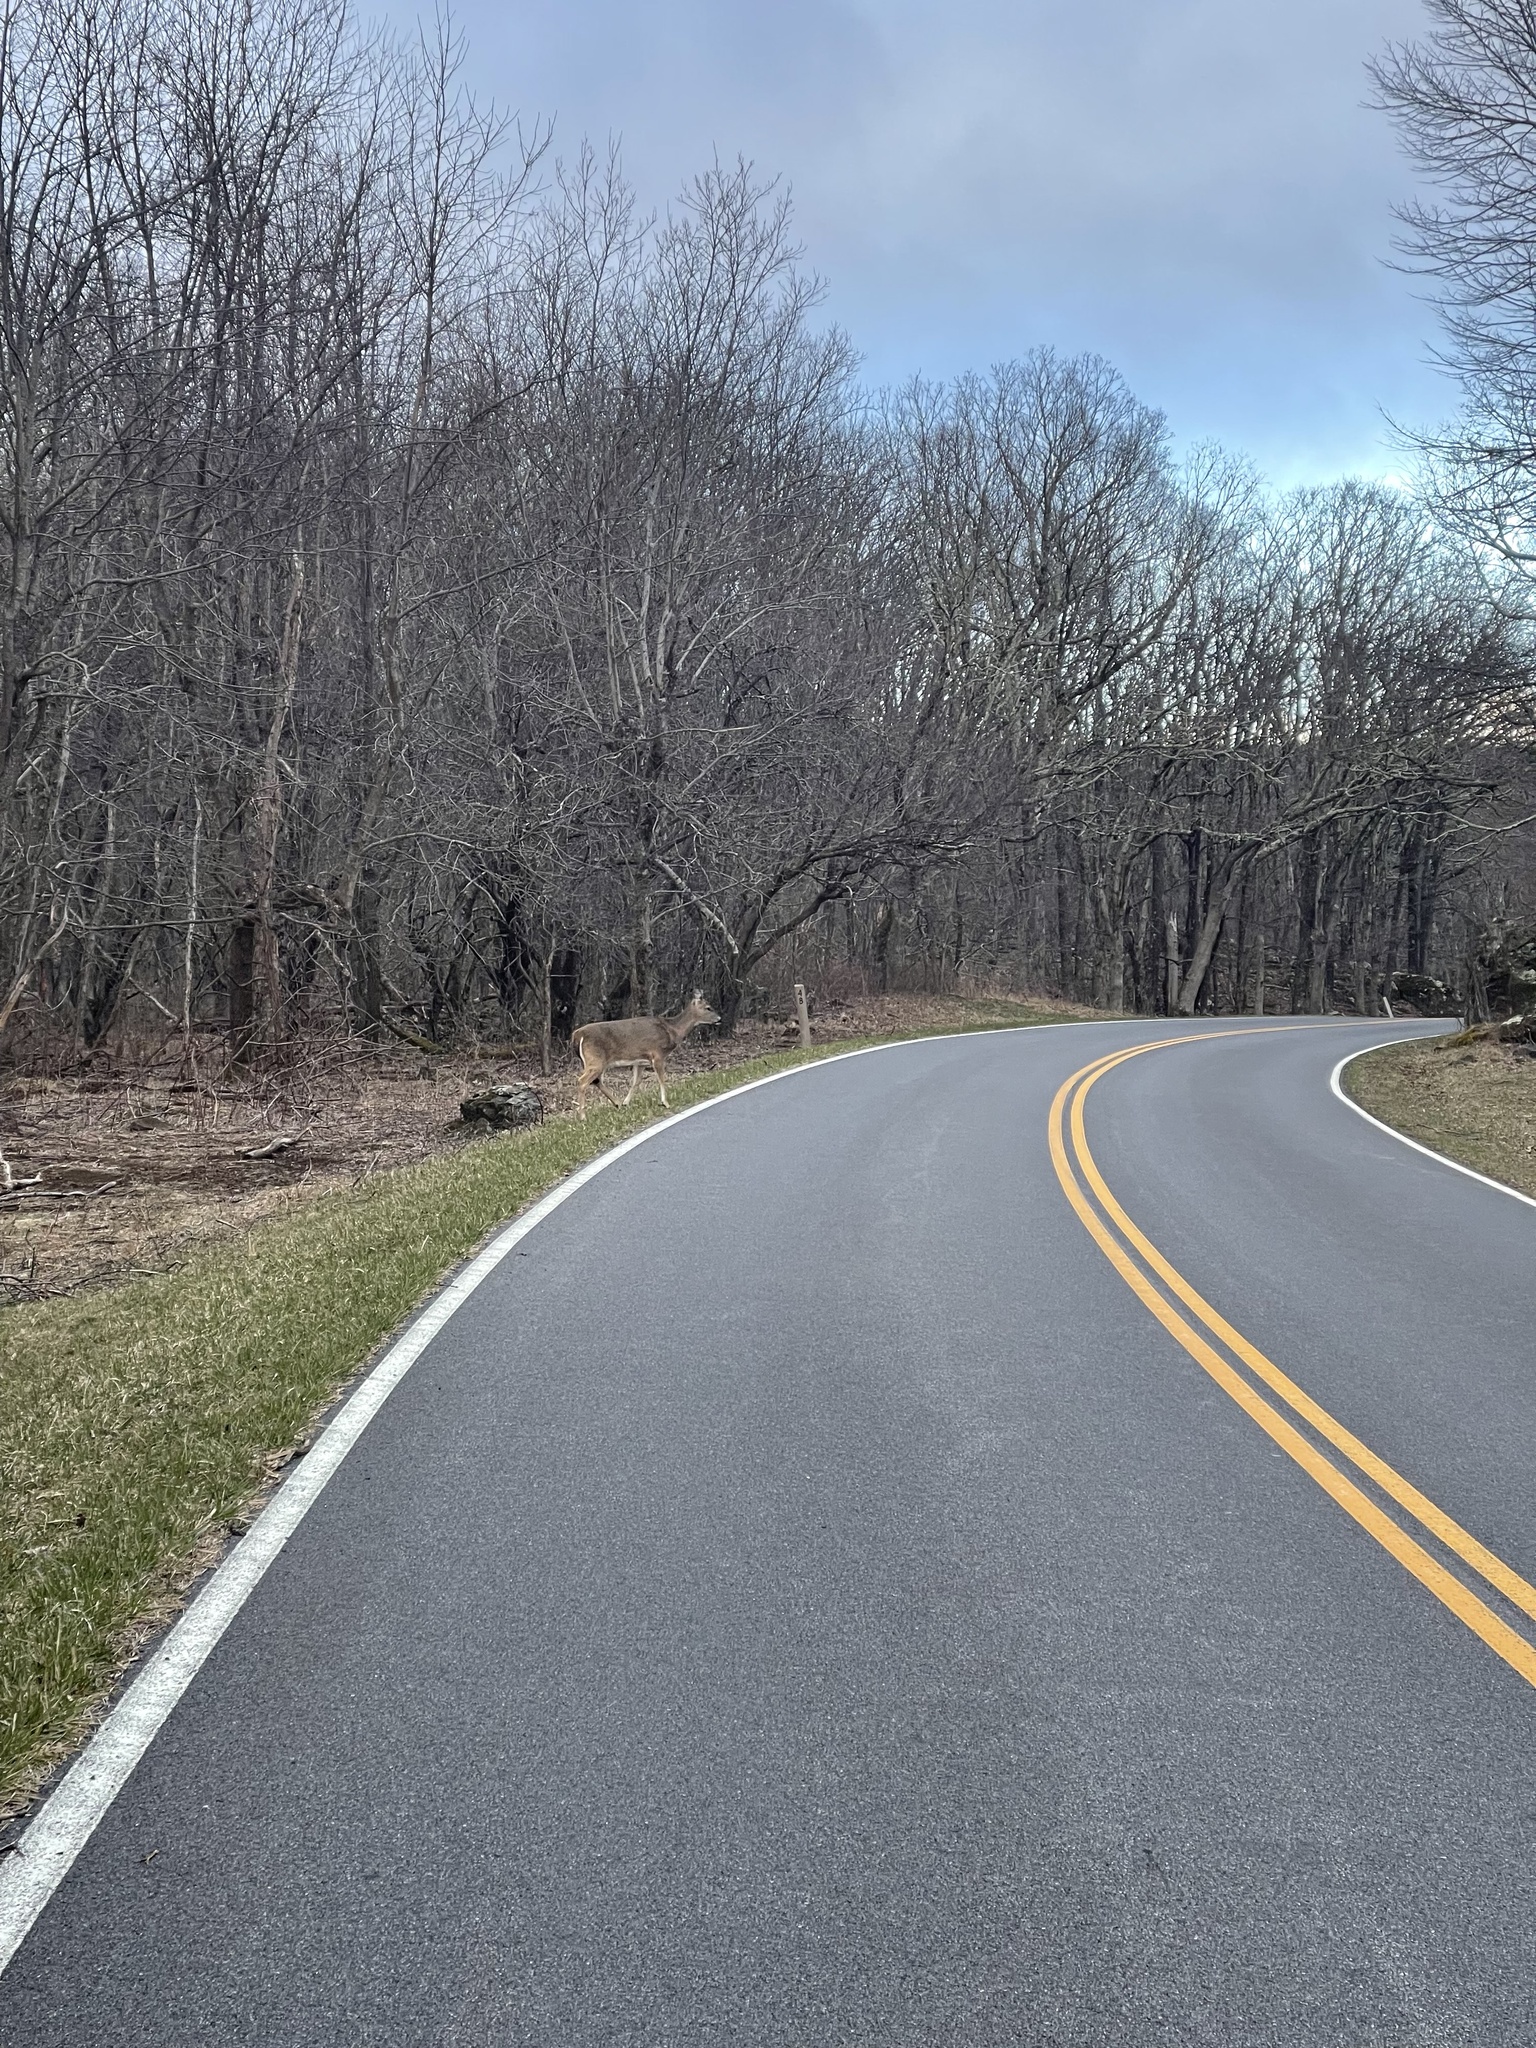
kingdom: Animalia
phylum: Chordata
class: Mammalia
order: Artiodactyla
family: Cervidae
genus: Odocoileus
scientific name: Odocoileus virginianus
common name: White-tailed deer
